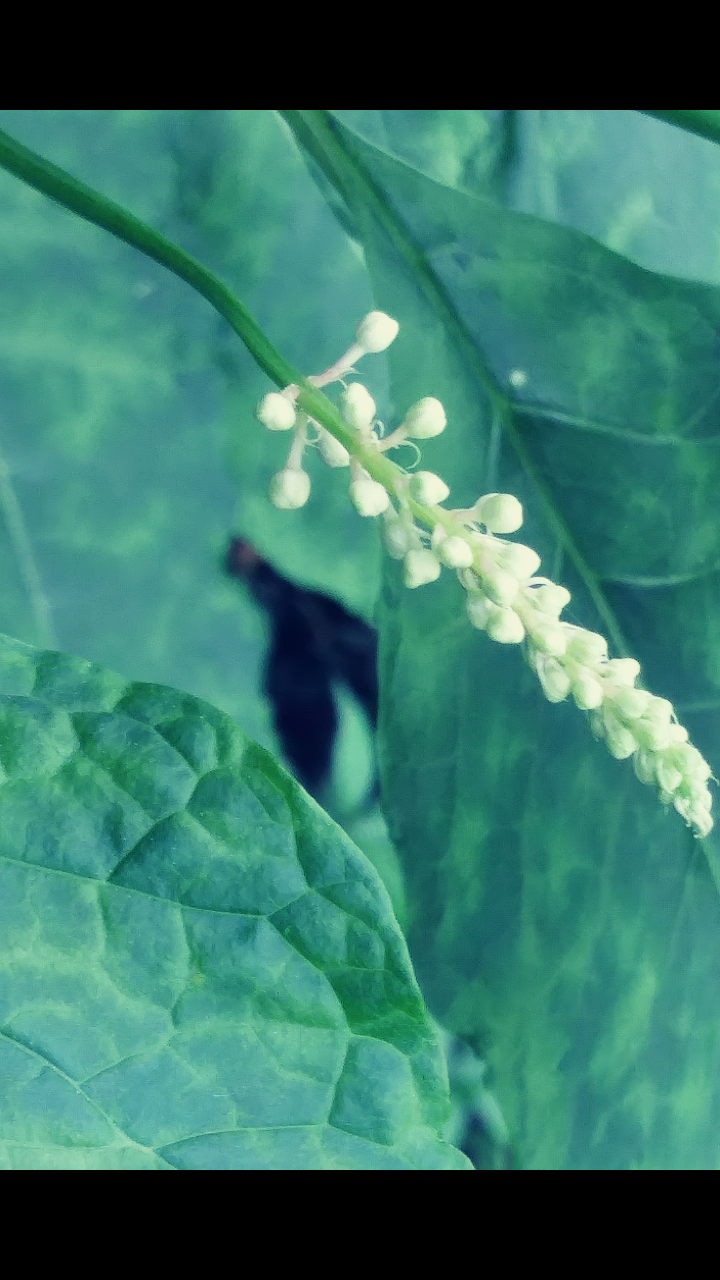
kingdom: Plantae
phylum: Tracheophyta
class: Magnoliopsida
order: Caryophyllales
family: Phytolaccaceae
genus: Phytolacca
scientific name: Phytolacca americana
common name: American pokeweed
